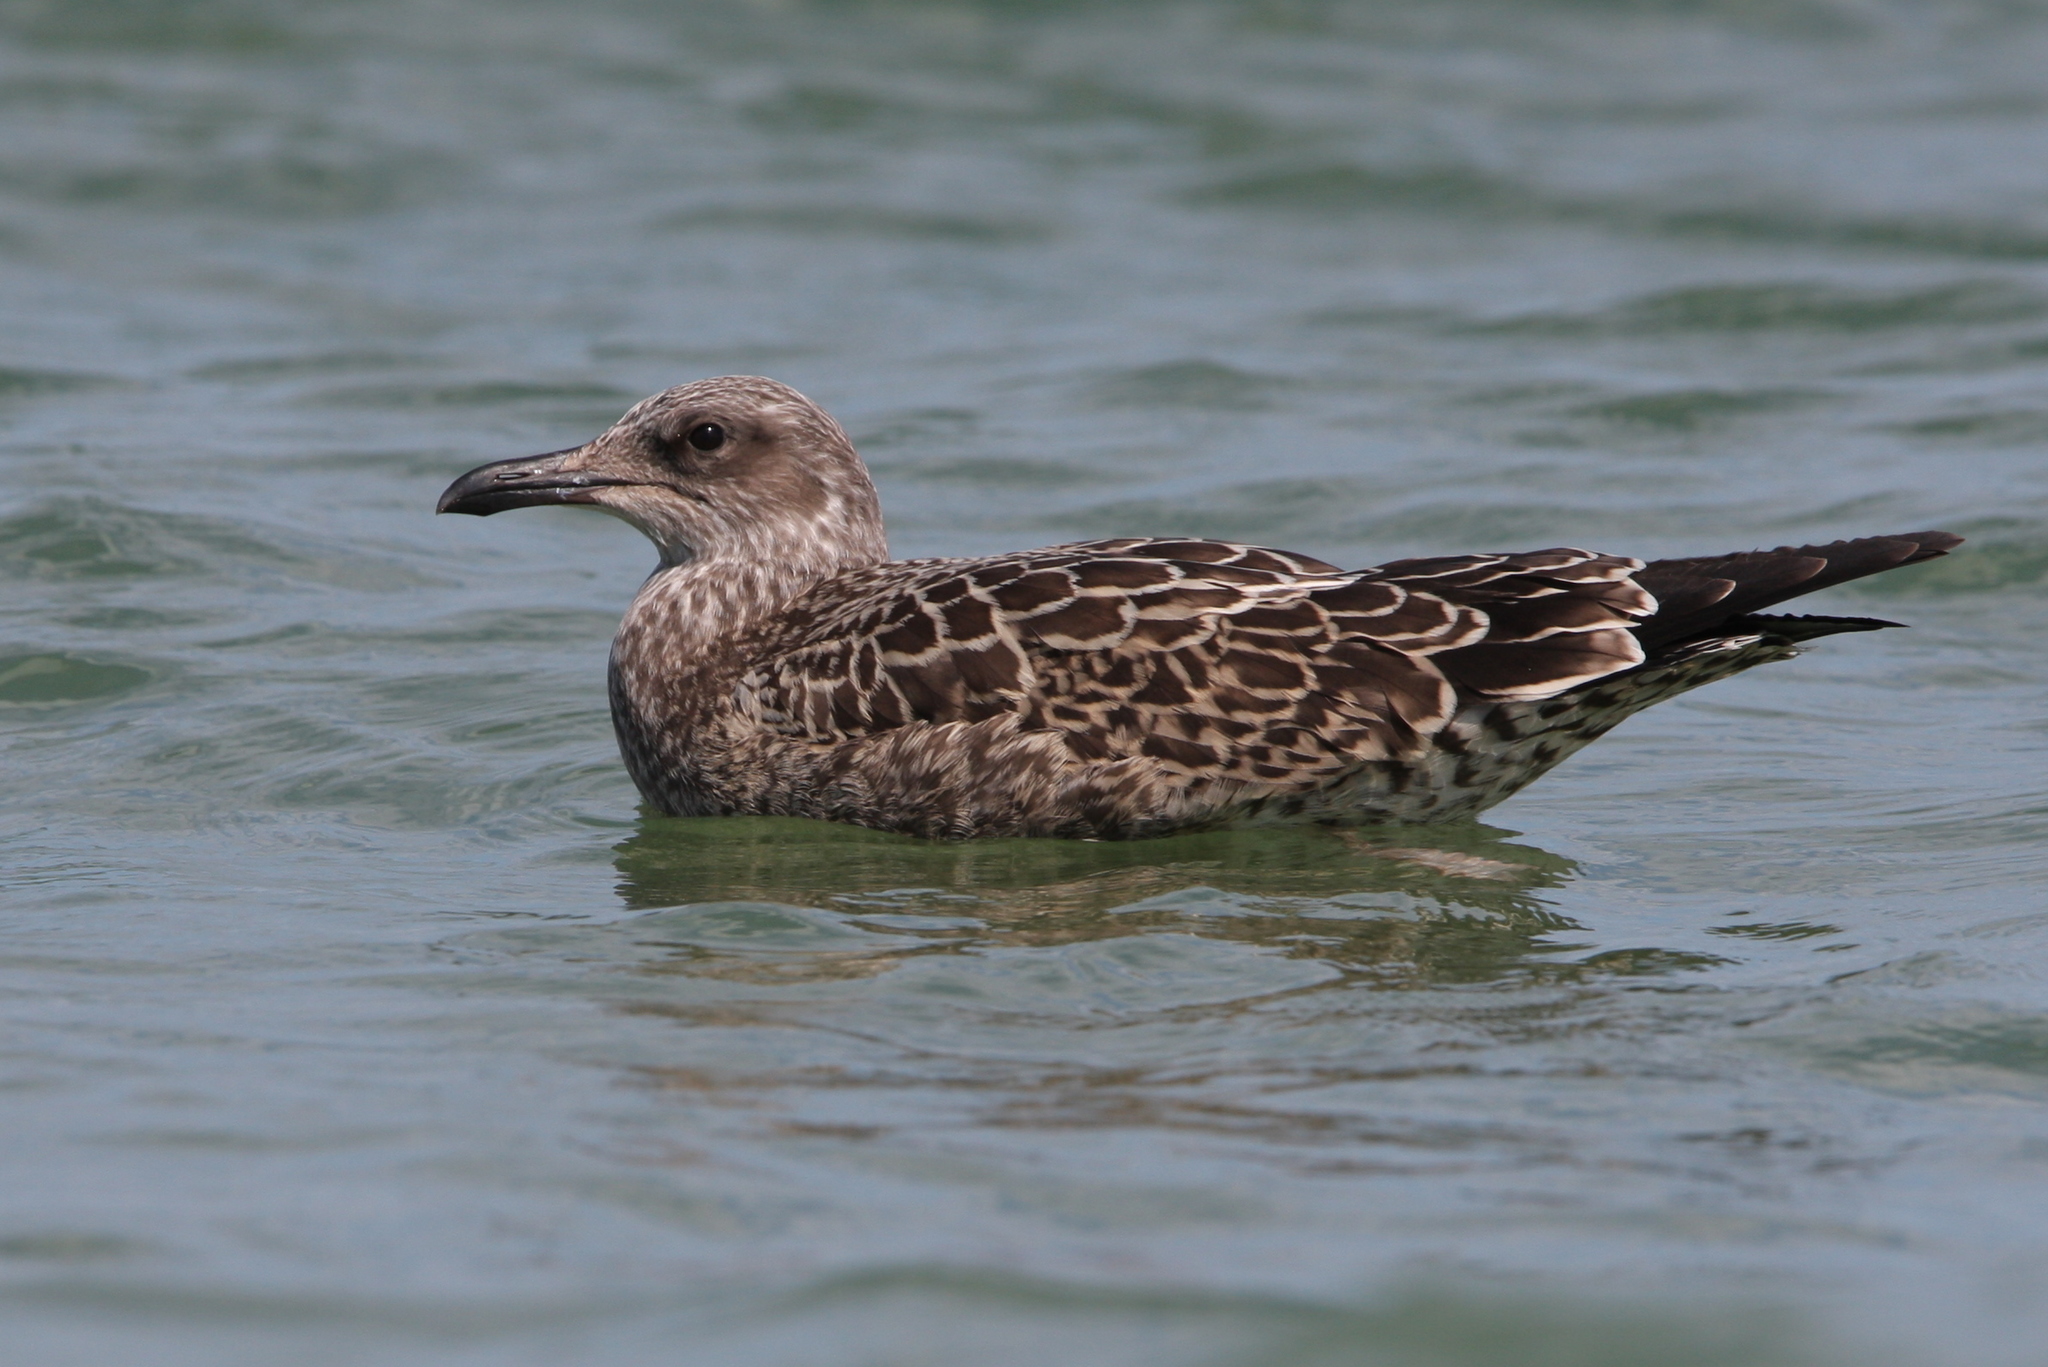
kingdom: Animalia
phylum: Chordata
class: Aves
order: Charadriiformes
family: Laridae
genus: Larus
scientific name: Larus fuscus
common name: Lesser black-backed gull
